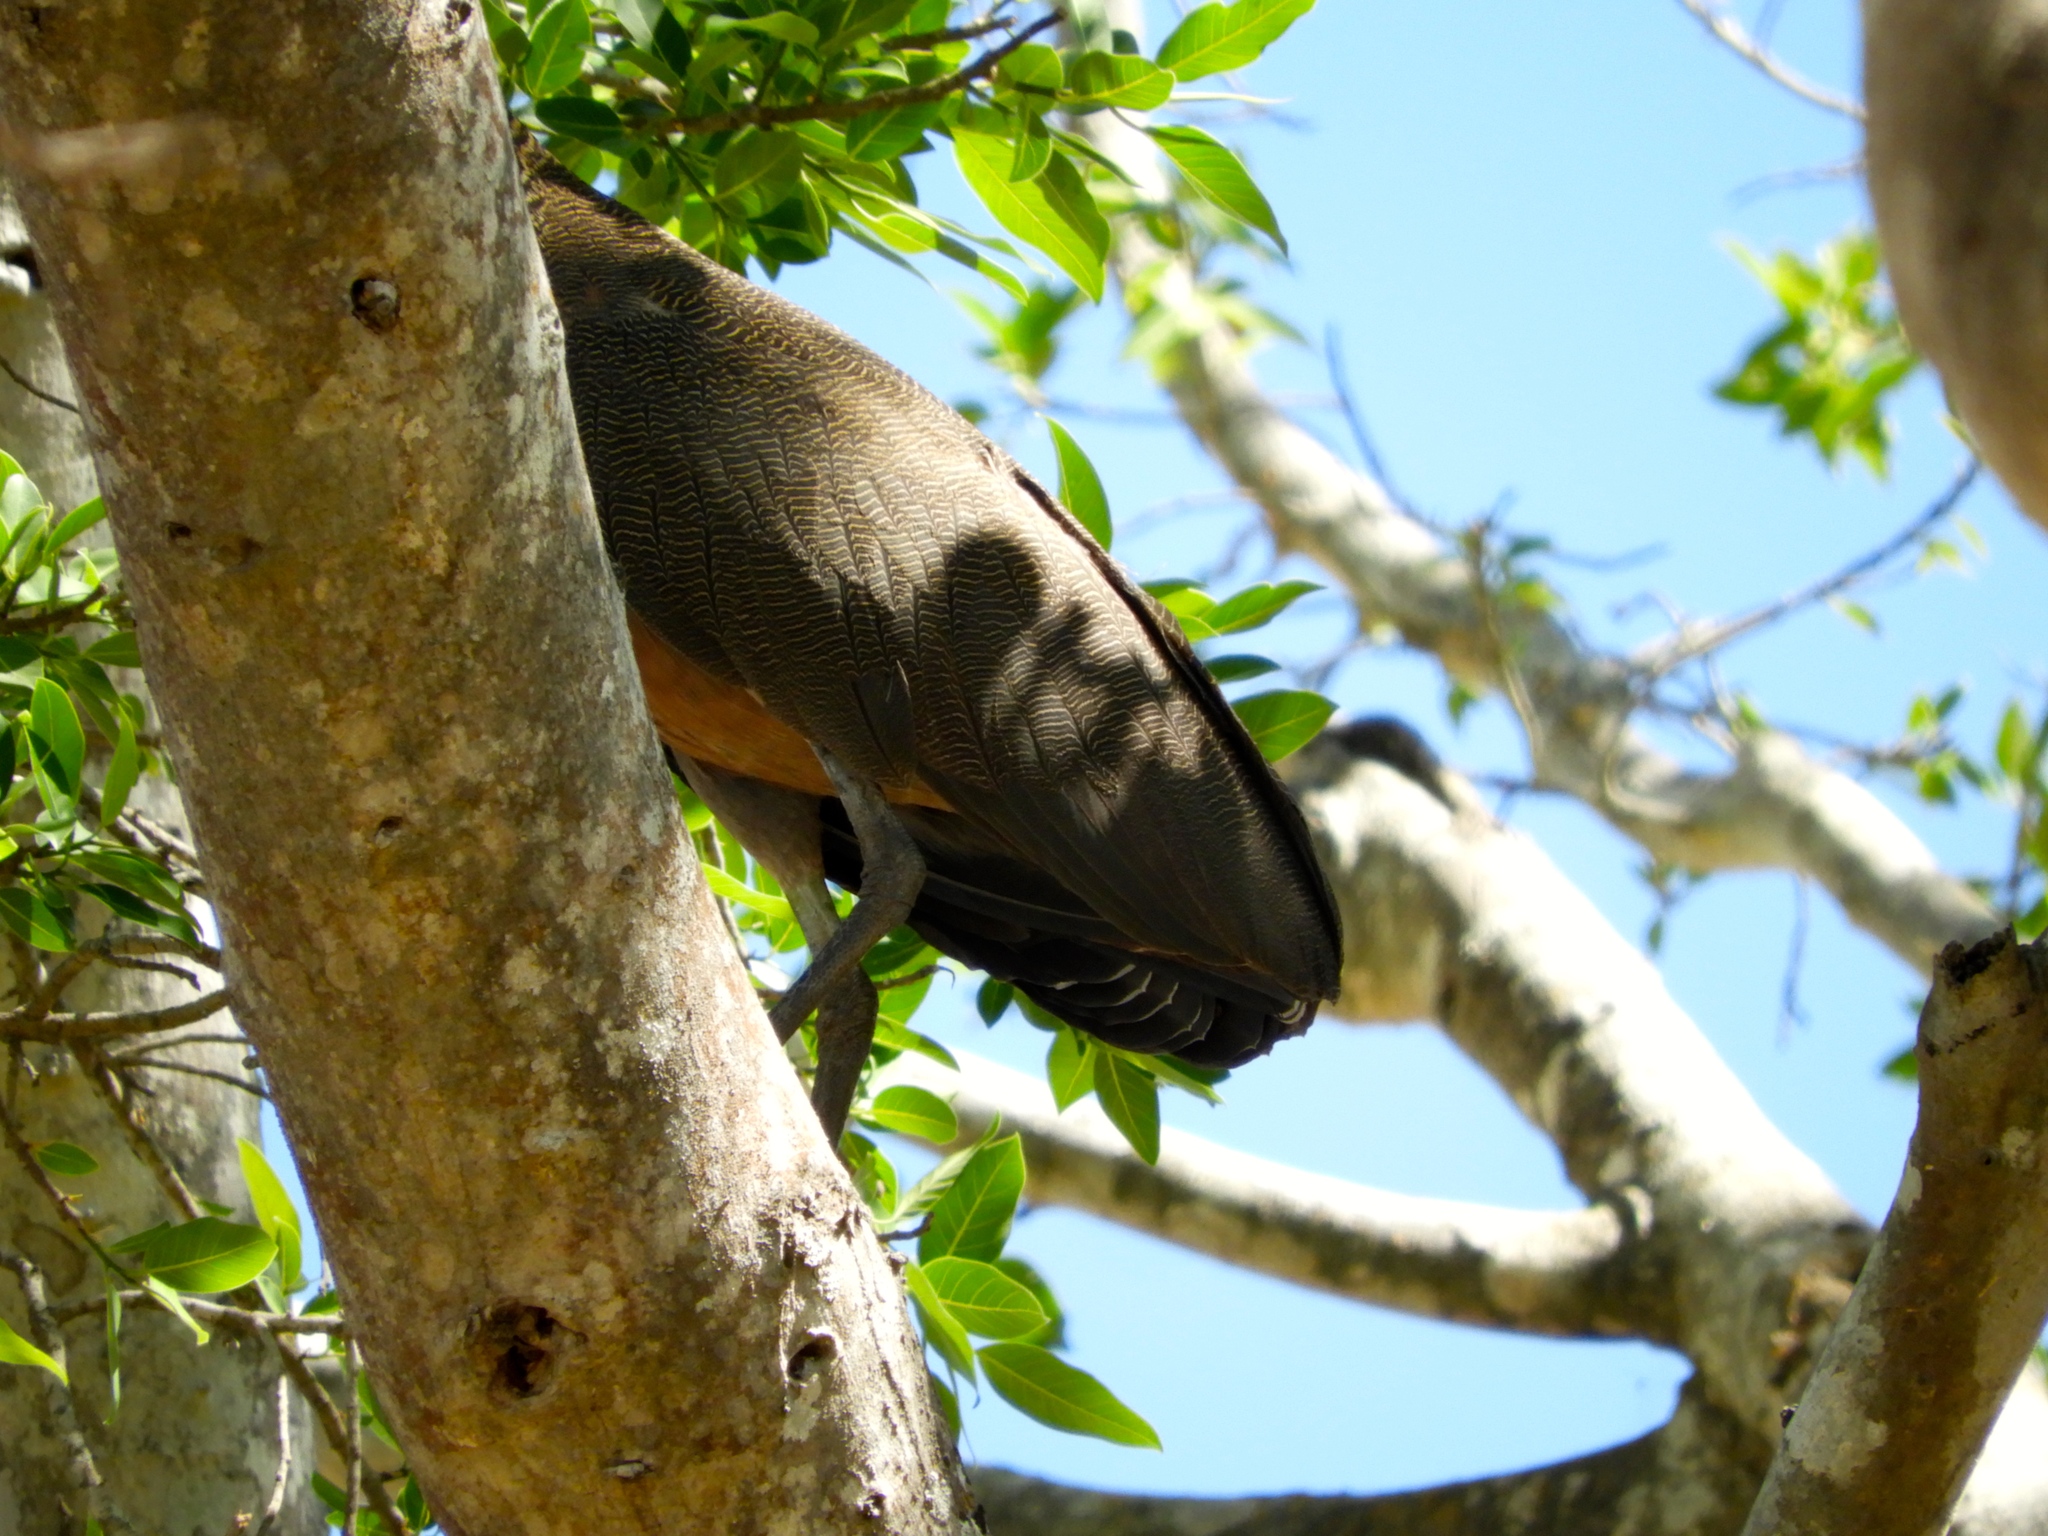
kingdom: Animalia
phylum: Chordata
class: Aves
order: Pelecaniformes
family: Ardeidae
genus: Tigrisoma
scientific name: Tigrisoma mexicanum
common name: Bare-throated tiger-heron
